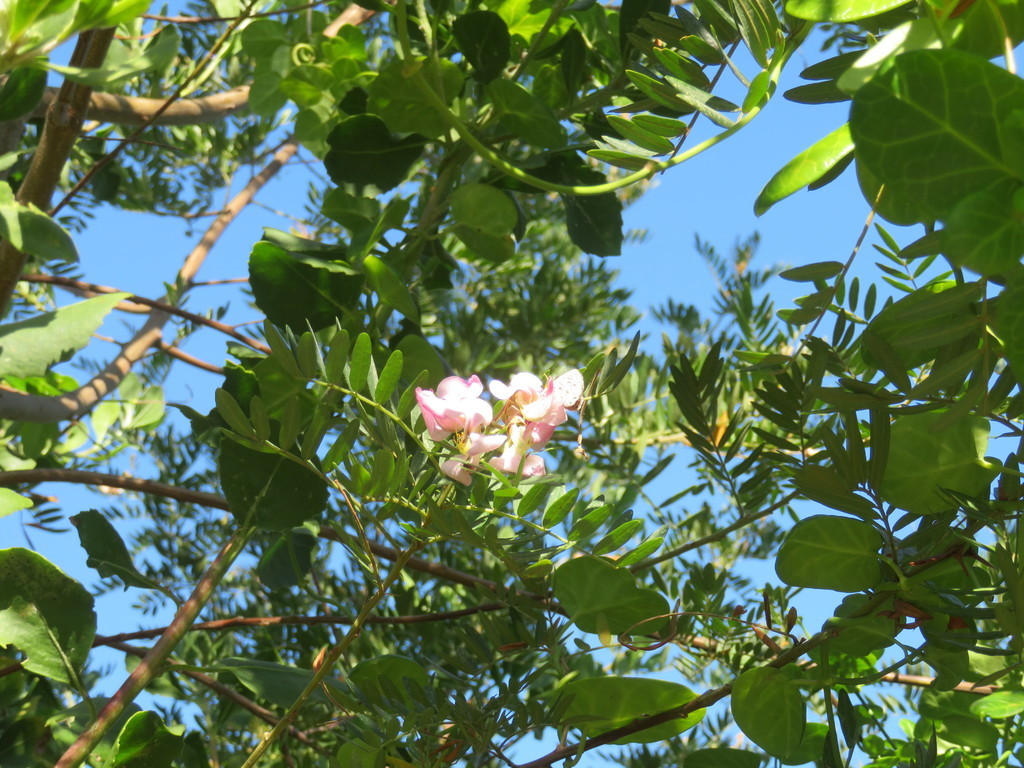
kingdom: Animalia
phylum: Arthropoda
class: Insecta
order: Lepidoptera
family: Lycaenidae
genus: Leptotes
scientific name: Leptotes
